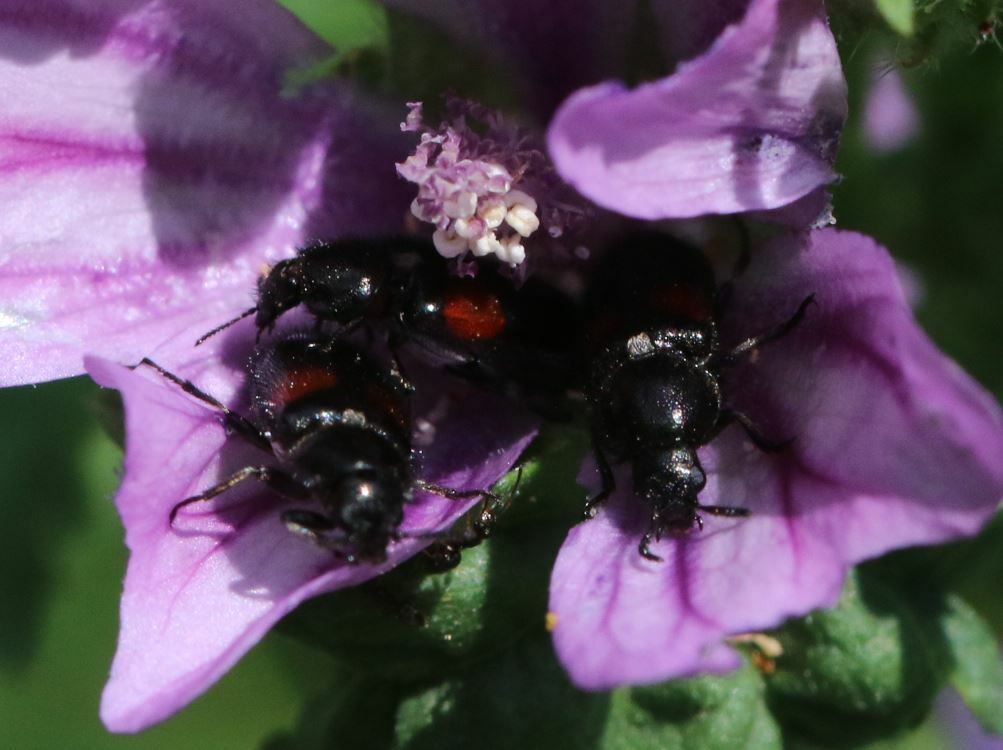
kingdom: Animalia
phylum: Arthropoda
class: Insecta
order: Coleoptera
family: Melyridae
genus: Divales
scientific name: Divales bipustulatus
